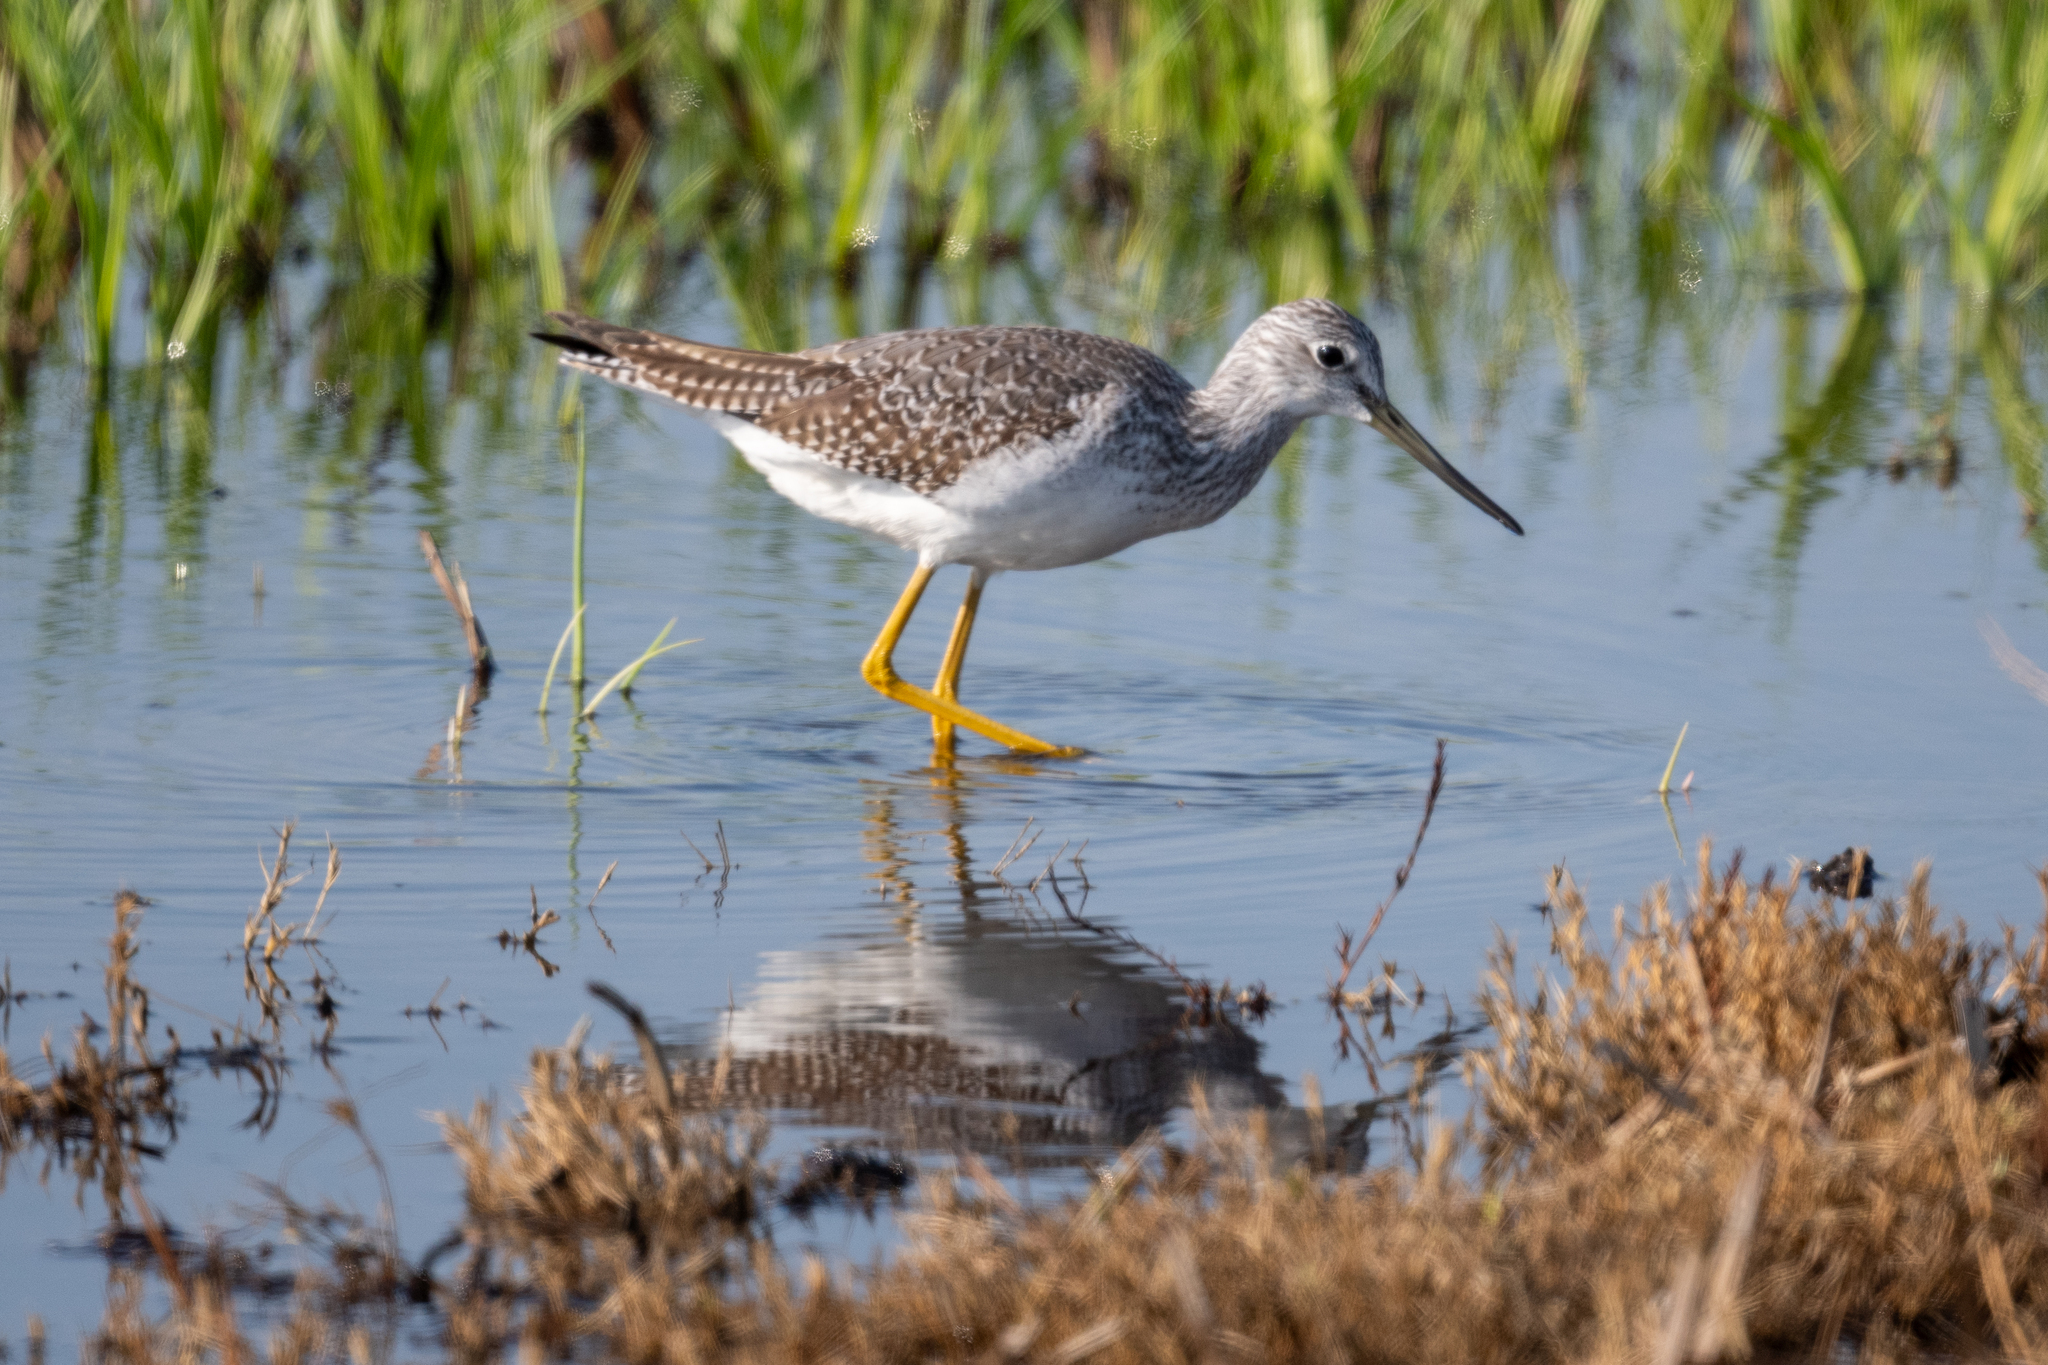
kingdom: Animalia
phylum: Chordata
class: Aves
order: Charadriiformes
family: Scolopacidae
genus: Tringa
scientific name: Tringa melanoleuca
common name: Greater yellowlegs
